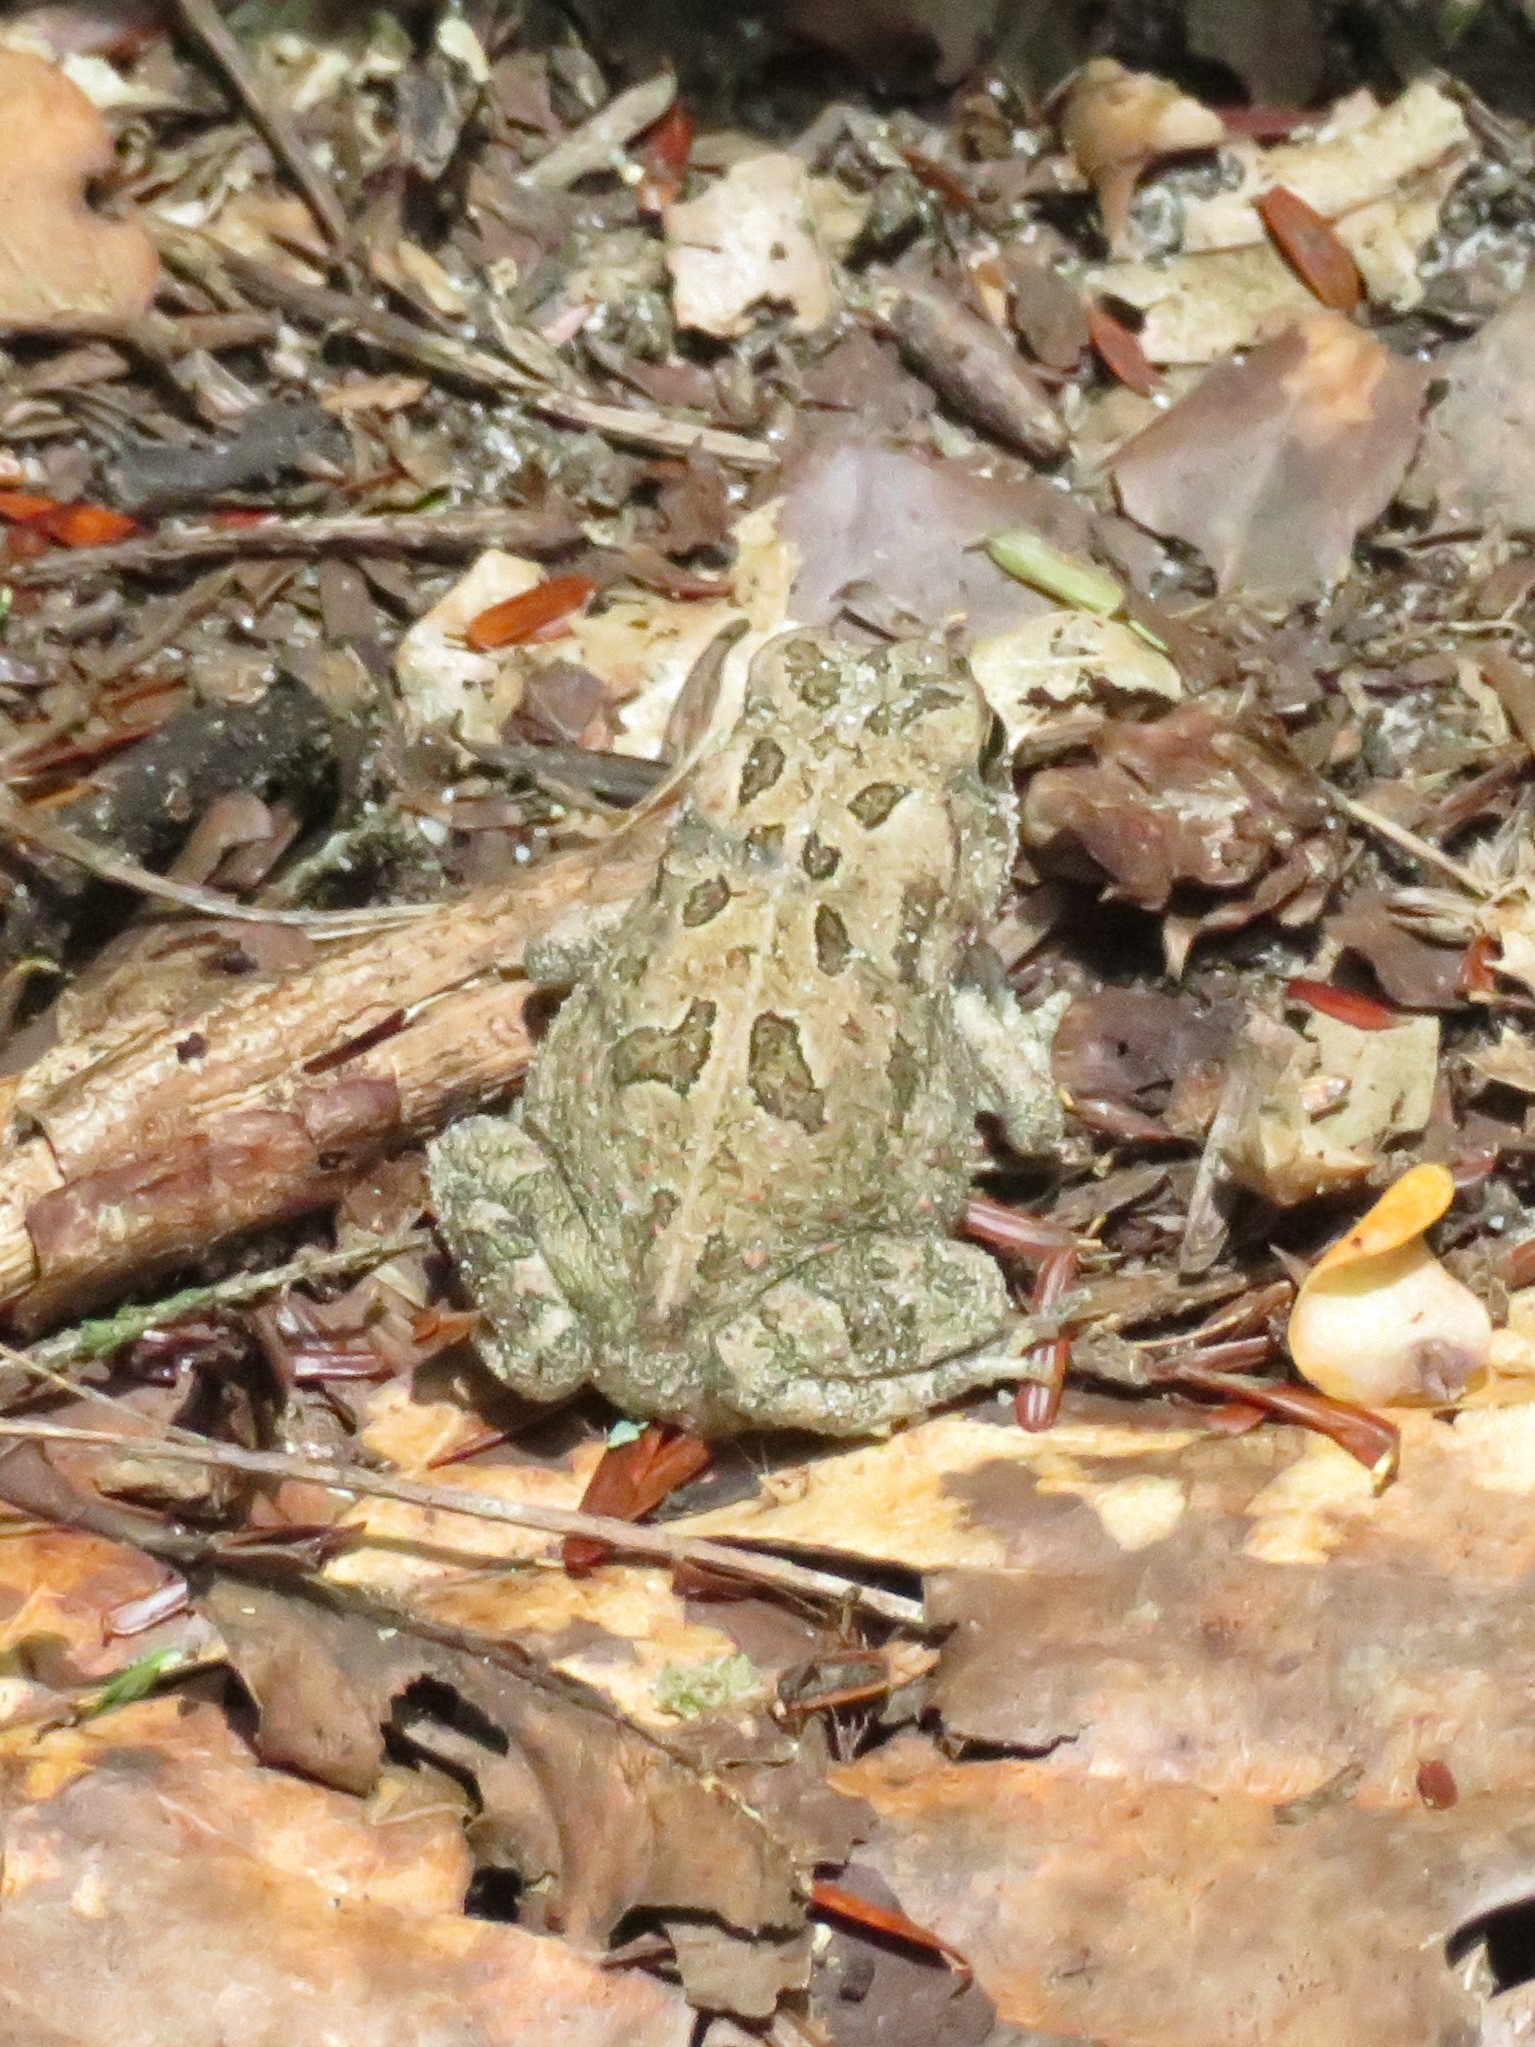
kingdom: Animalia
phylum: Chordata
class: Amphibia
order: Anura
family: Bufonidae
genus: Anaxyrus
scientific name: Anaxyrus fowleri
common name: Fowler's toad
